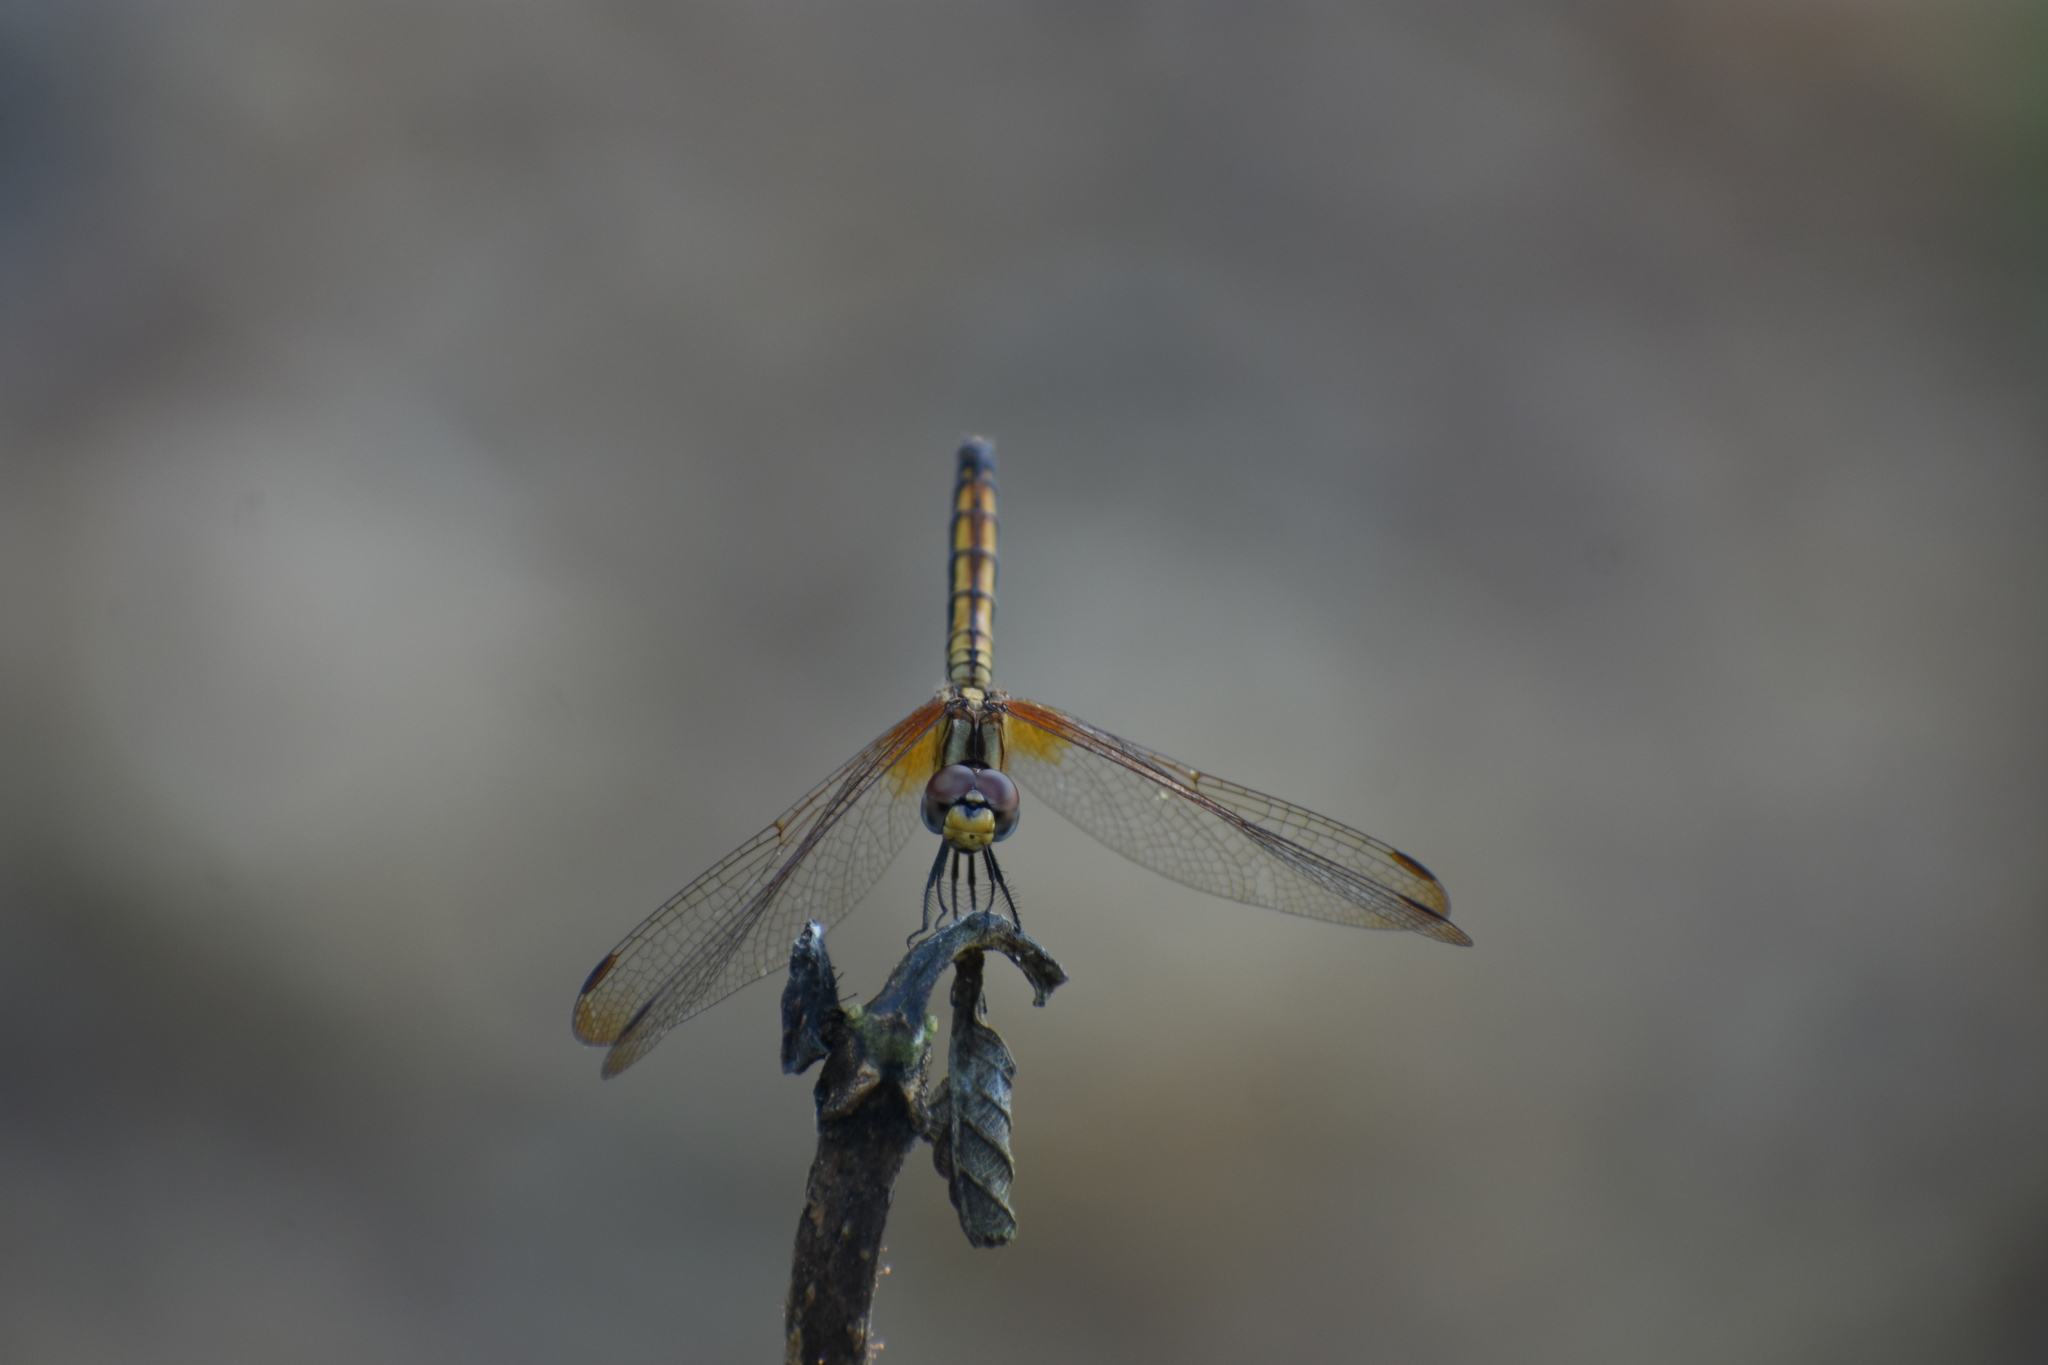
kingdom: Animalia
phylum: Arthropoda
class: Insecta
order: Odonata
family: Libellulidae
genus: Trithemis
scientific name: Trithemis aurora
